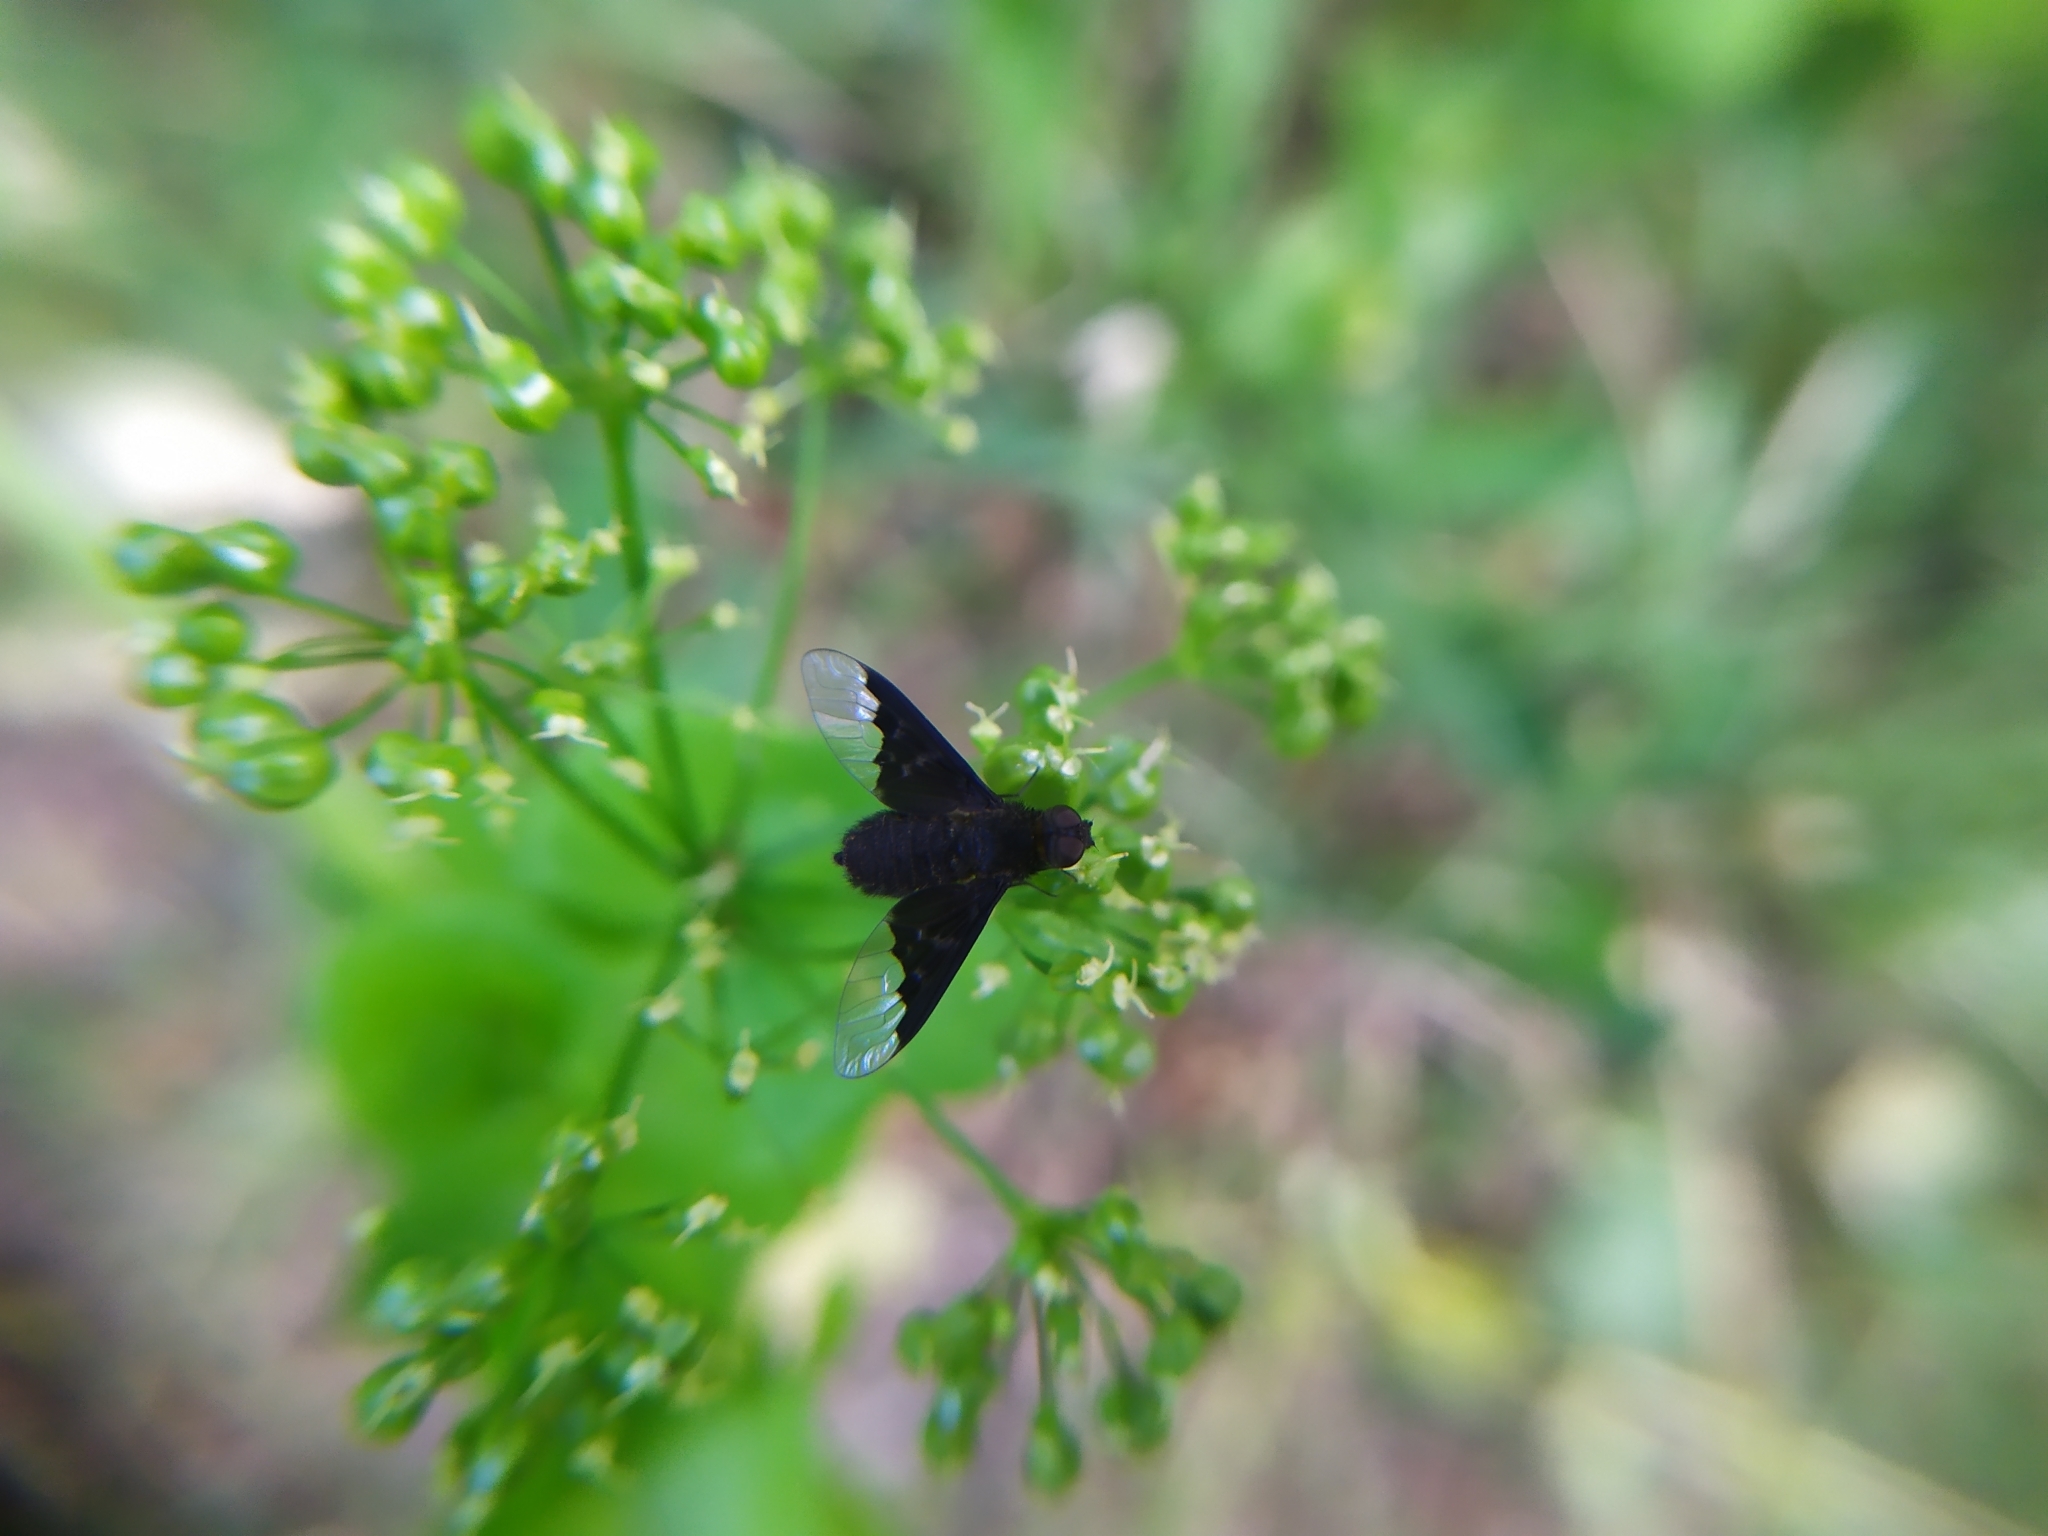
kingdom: Animalia
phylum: Arthropoda
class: Insecta
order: Diptera
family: Bombyliidae
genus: Hemipenthes
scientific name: Hemipenthes morio
